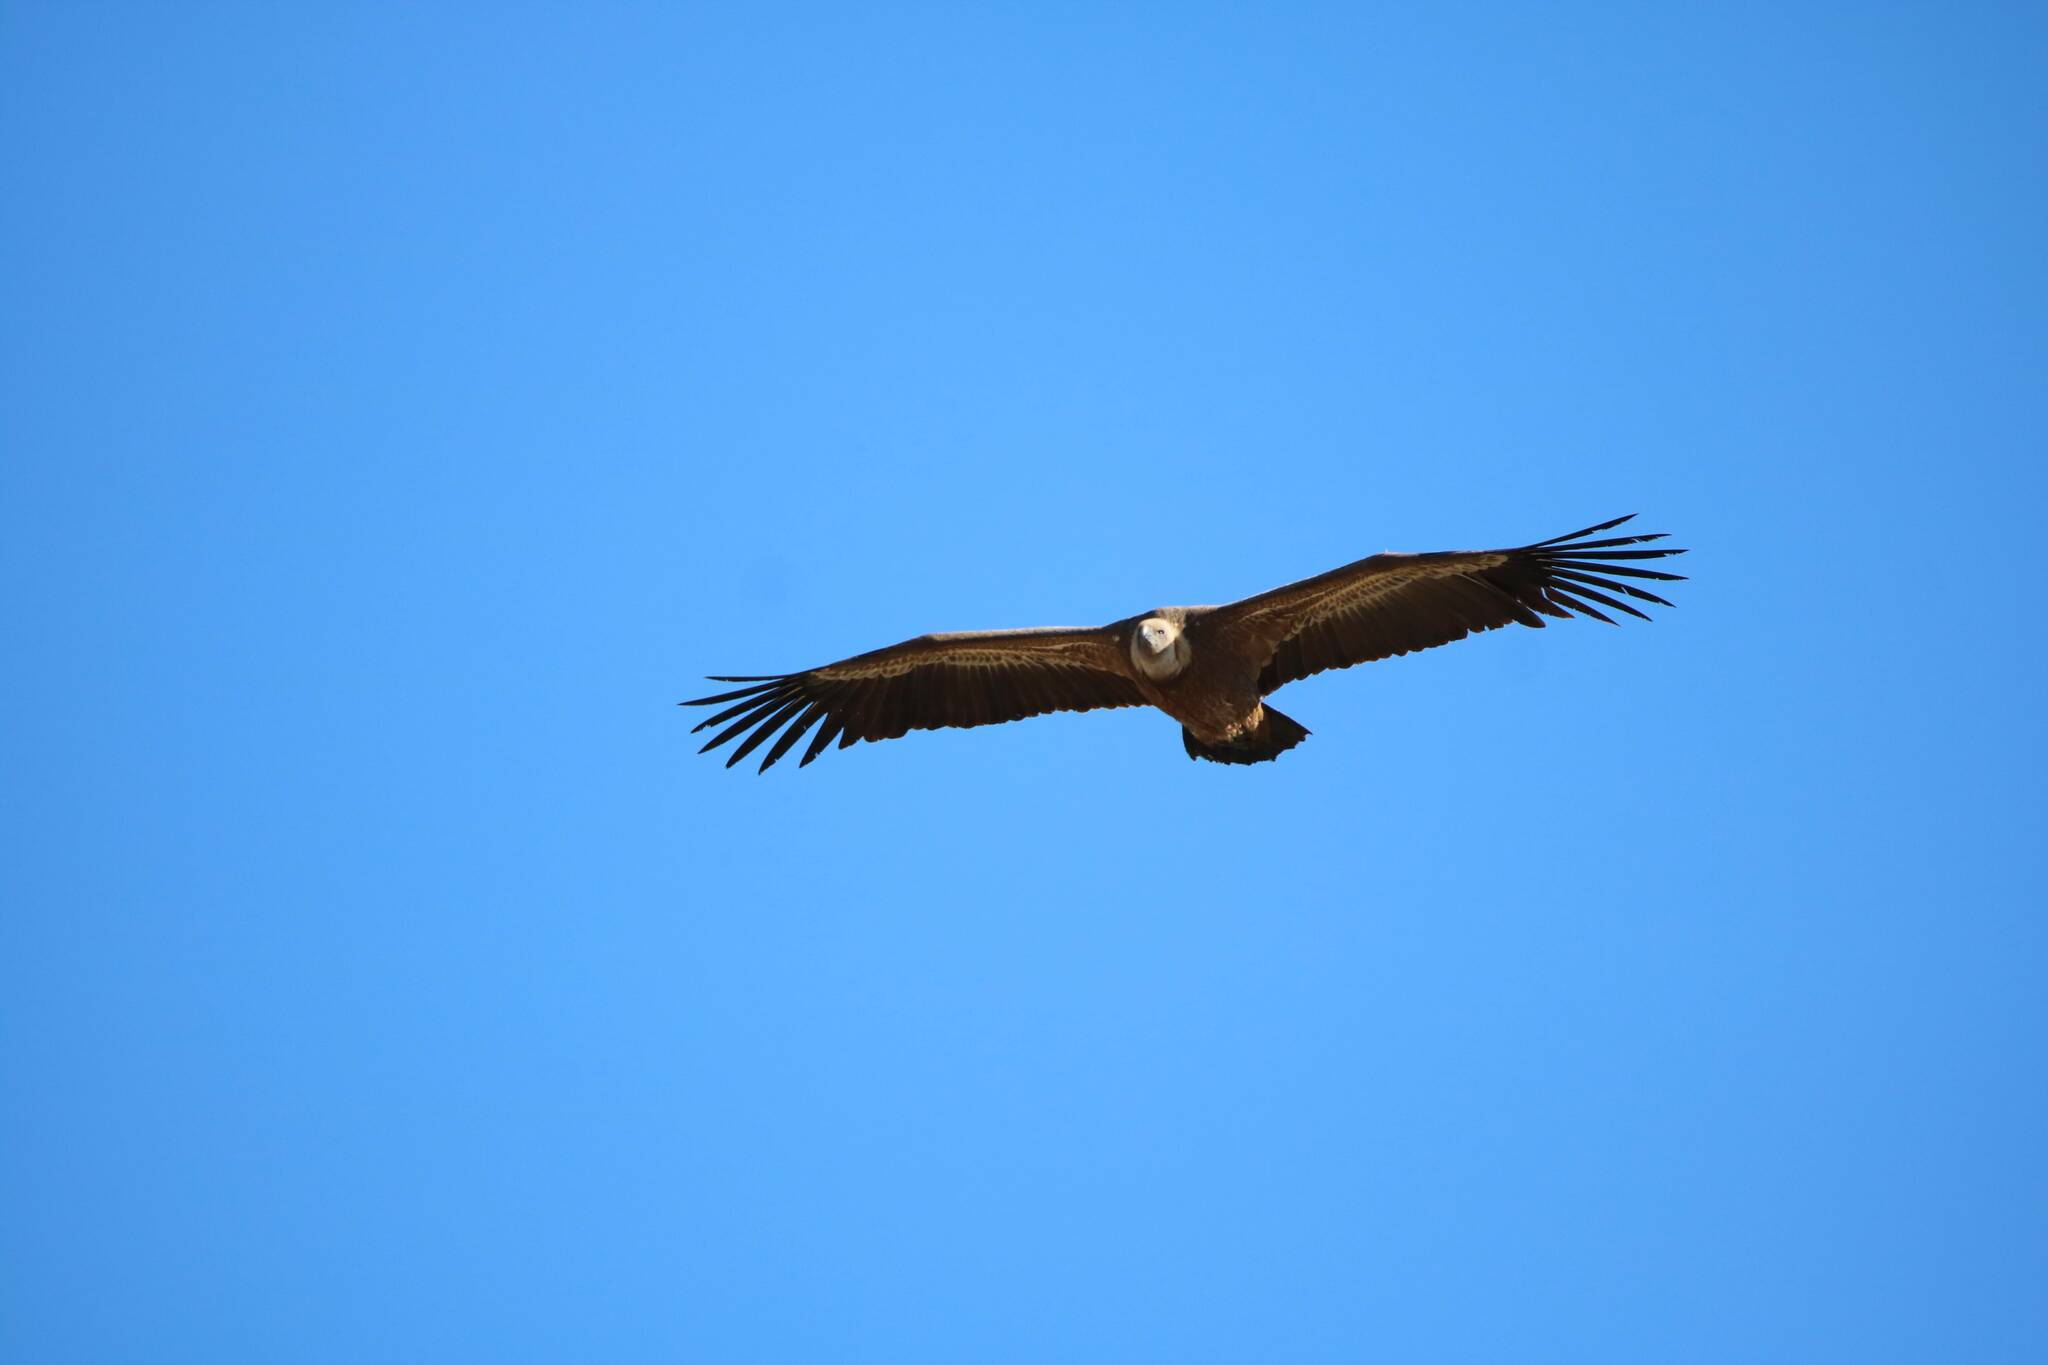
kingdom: Animalia
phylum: Chordata
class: Aves
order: Accipitriformes
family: Accipitridae
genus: Gyps
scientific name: Gyps fulvus
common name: Griffon vulture
